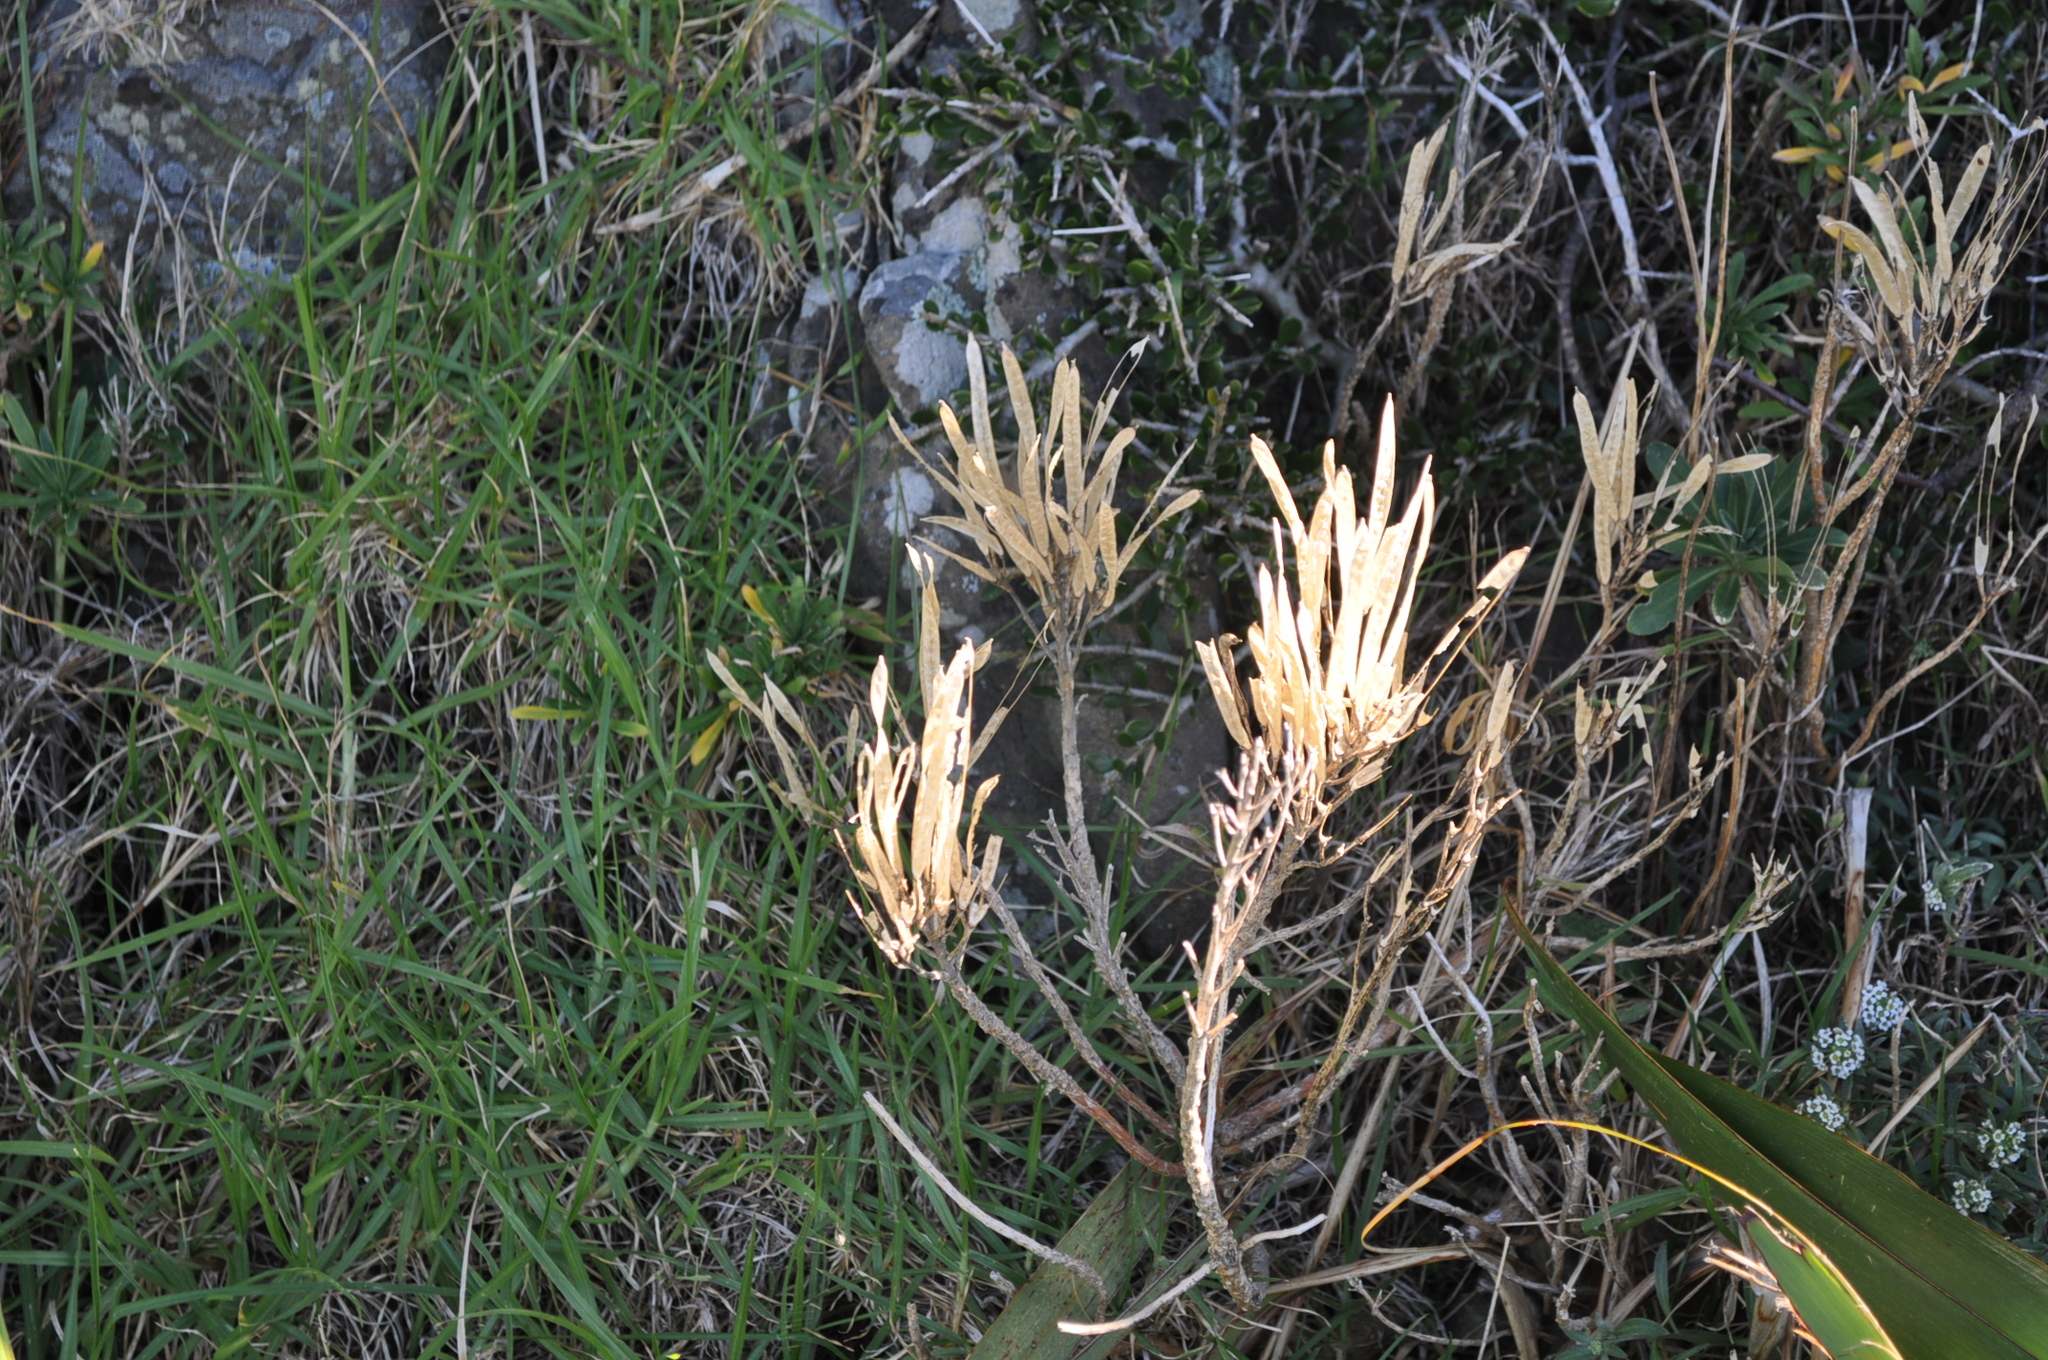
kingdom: Plantae
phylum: Tracheophyta
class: Magnoliopsida
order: Brassicales
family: Brassicaceae
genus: Erysimum
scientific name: Erysimum cheiri
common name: Wallflower
